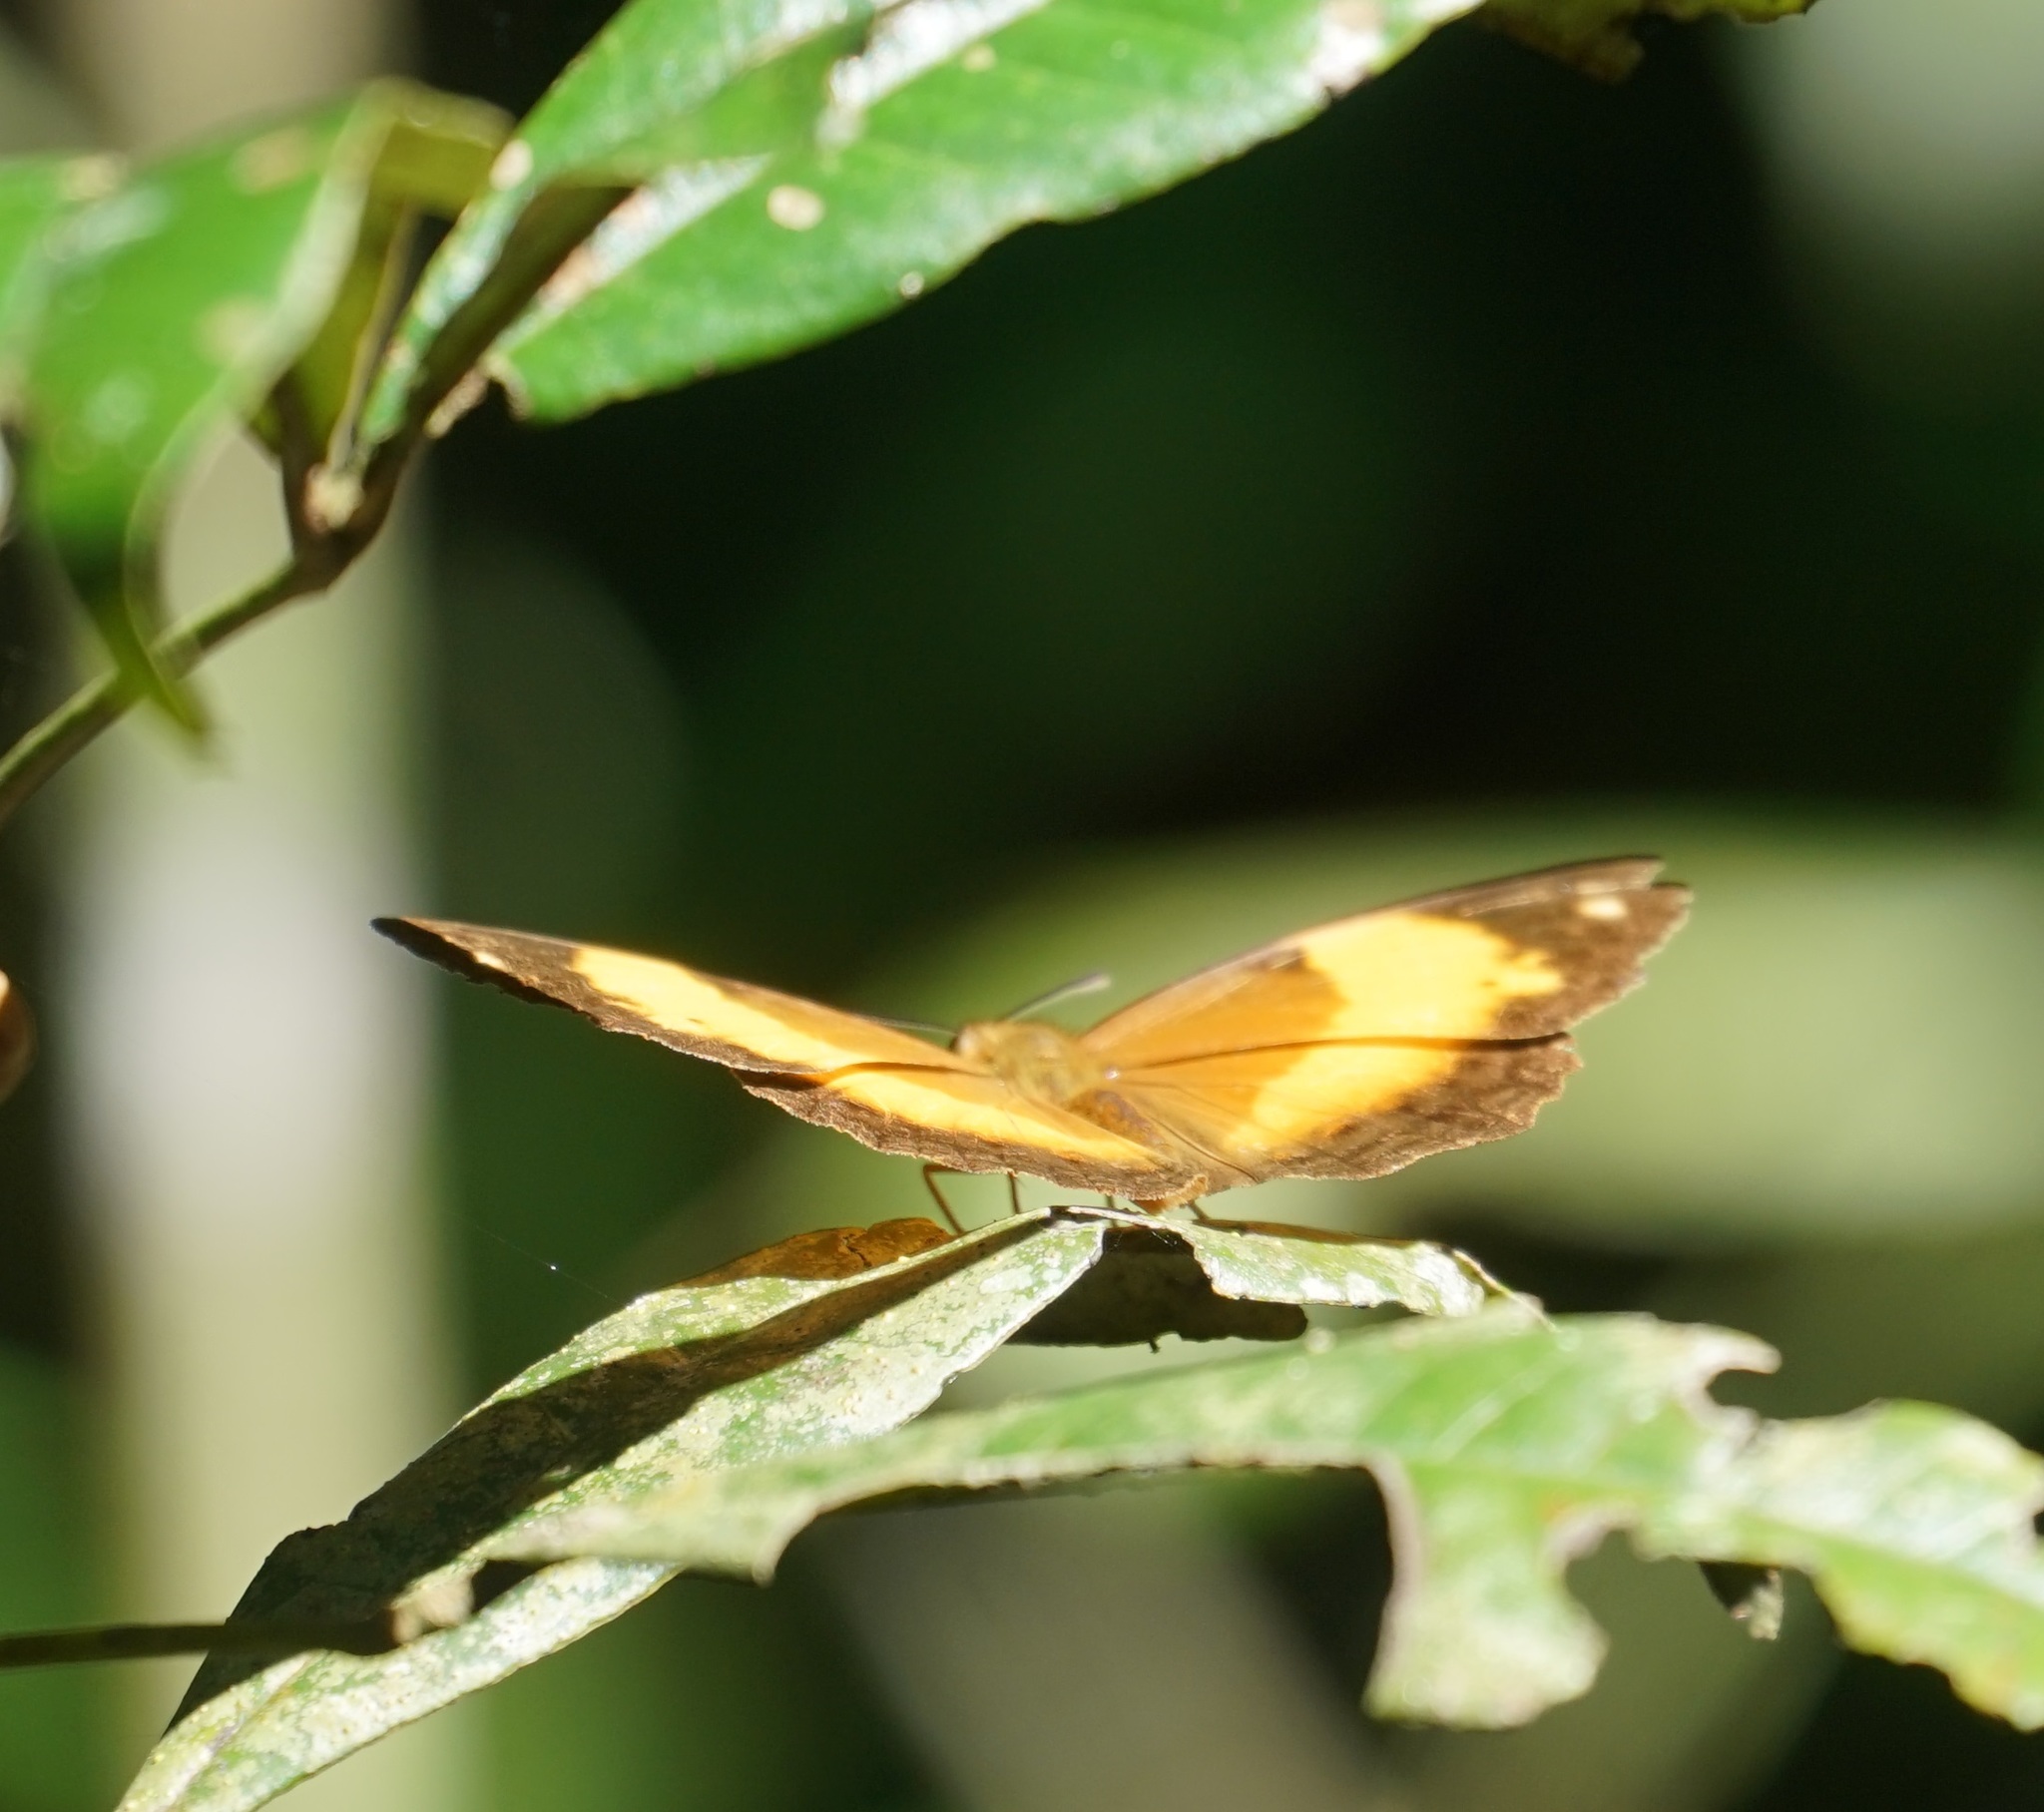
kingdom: Animalia
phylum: Arthropoda
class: Insecta
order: Lepidoptera
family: Nymphalidae
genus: Cupha
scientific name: Cupha prosope
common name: Bordered rustic
